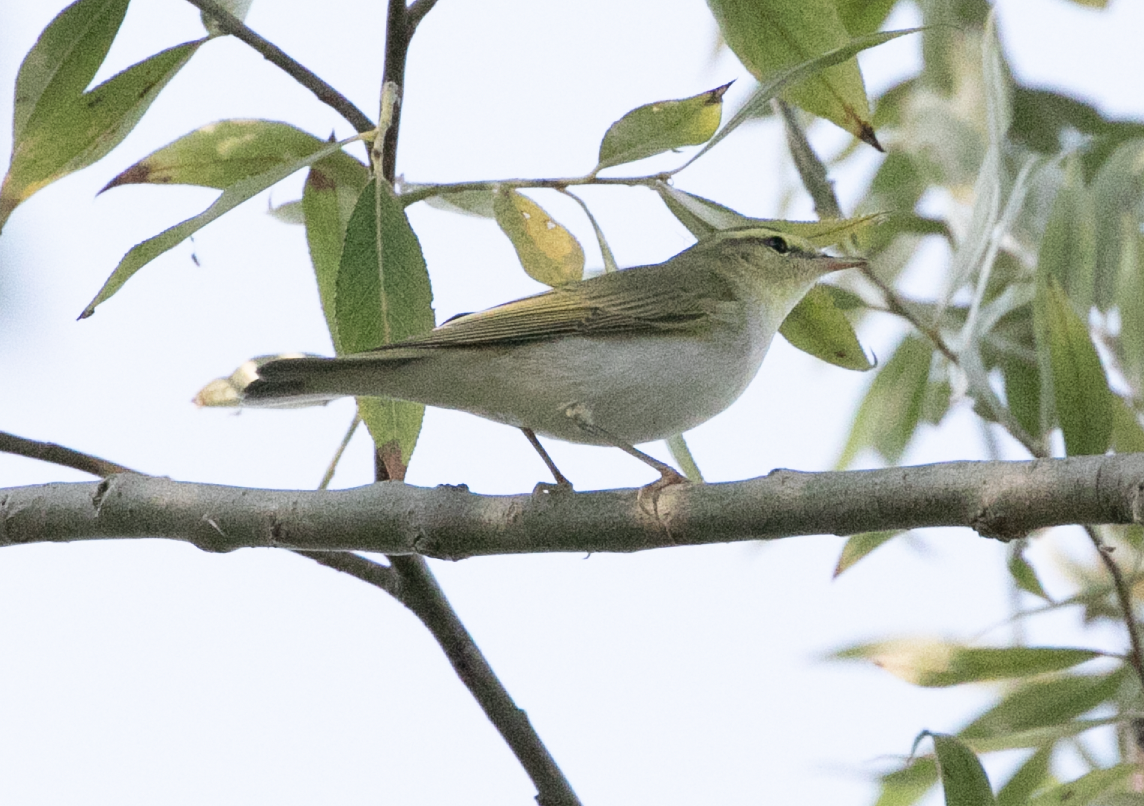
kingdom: Animalia
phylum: Chordata
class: Aves
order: Passeriformes
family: Phylloscopidae
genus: Phylloscopus
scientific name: Phylloscopus sibillatrix
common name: Wood warbler
